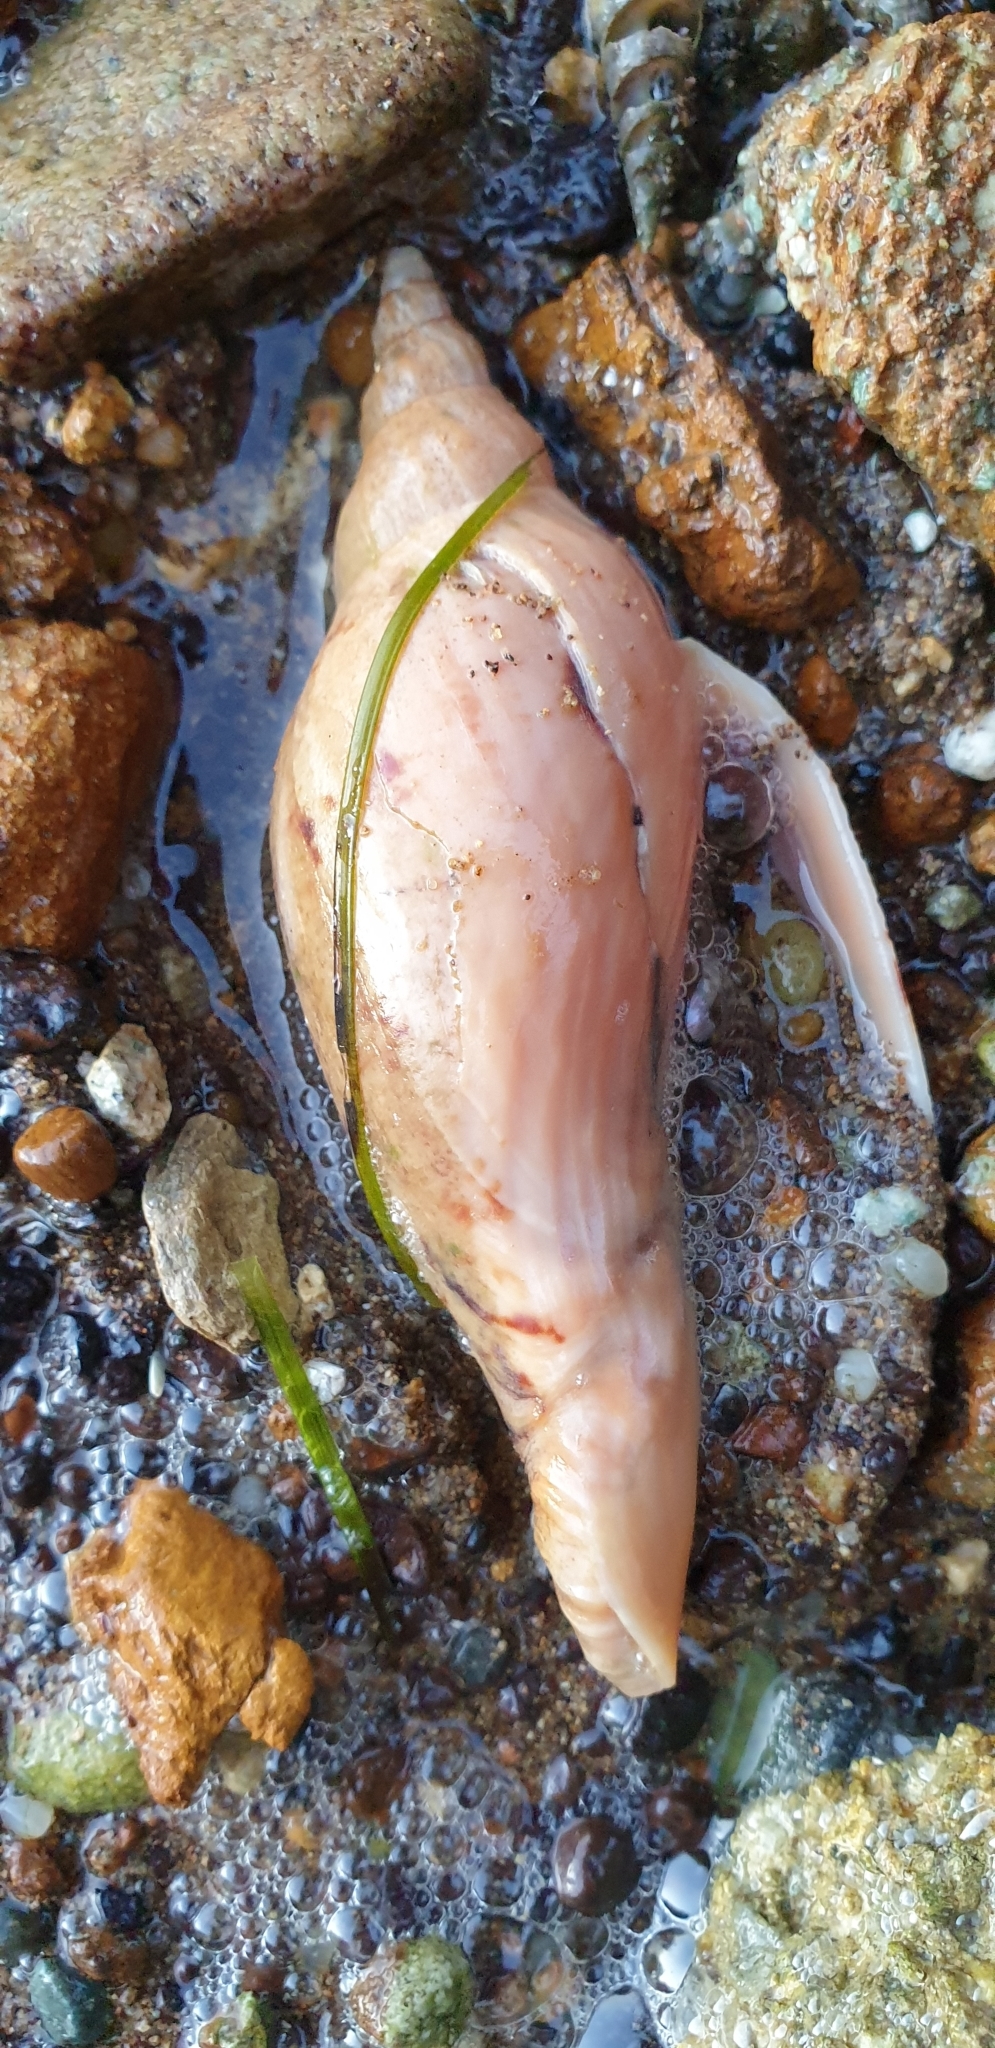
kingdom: Animalia
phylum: Mollusca
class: Gastropoda
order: Neogastropoda
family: Volutidae
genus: Alcithoe
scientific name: Alcithoe arabica
